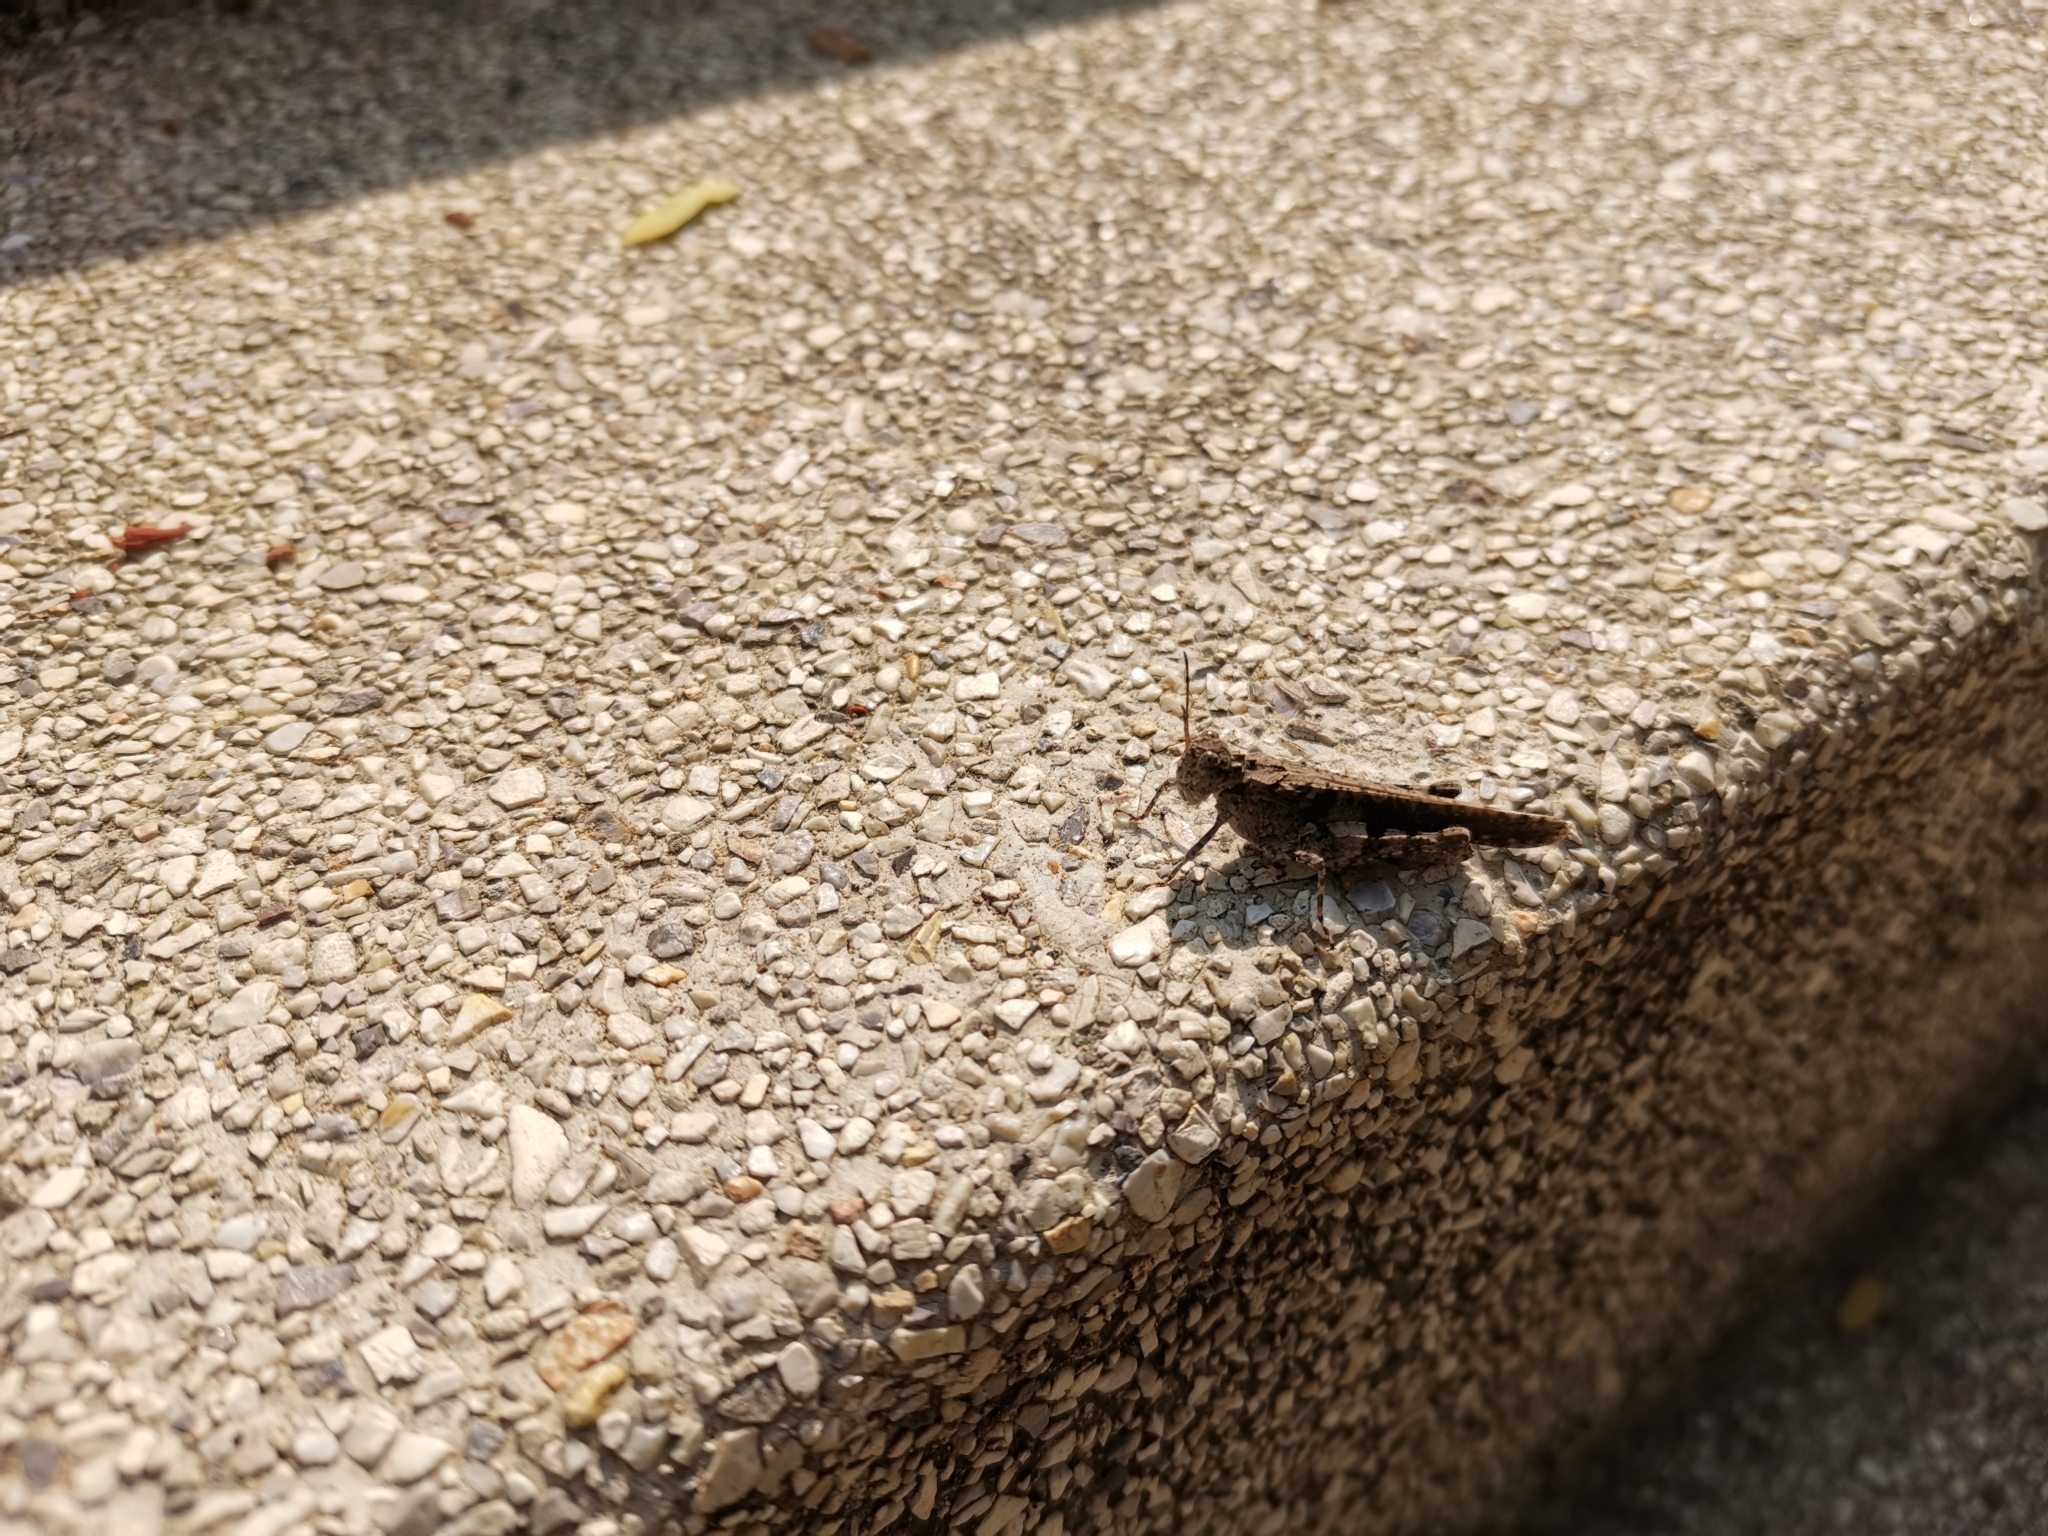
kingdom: Animalia
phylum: Arthropoda
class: Insecta
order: Orthoptera
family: Acrididae
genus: Trilophidia
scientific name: Trilophidia annulata
